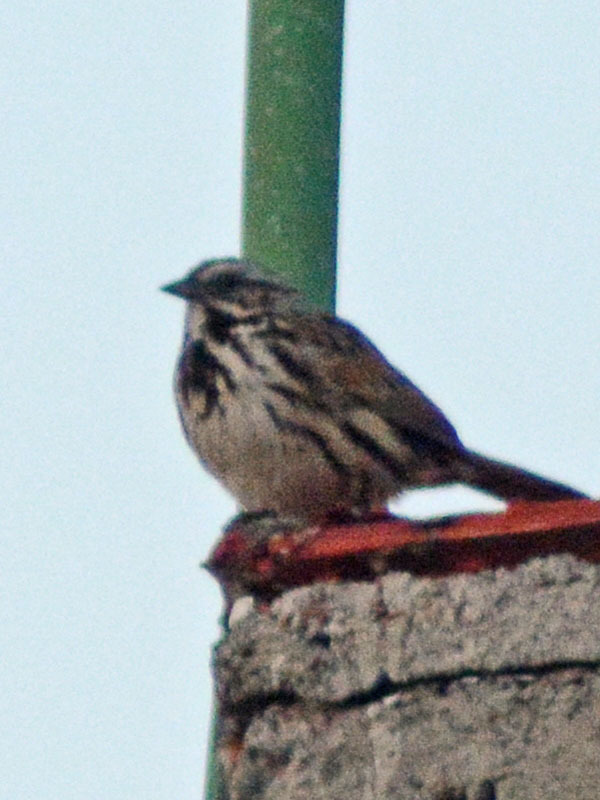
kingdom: Animalia
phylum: Chordata
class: Aves
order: Passeriformes
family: Passerellidae
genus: Melospiza
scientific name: Melospiza melodia
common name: Song sparrow
